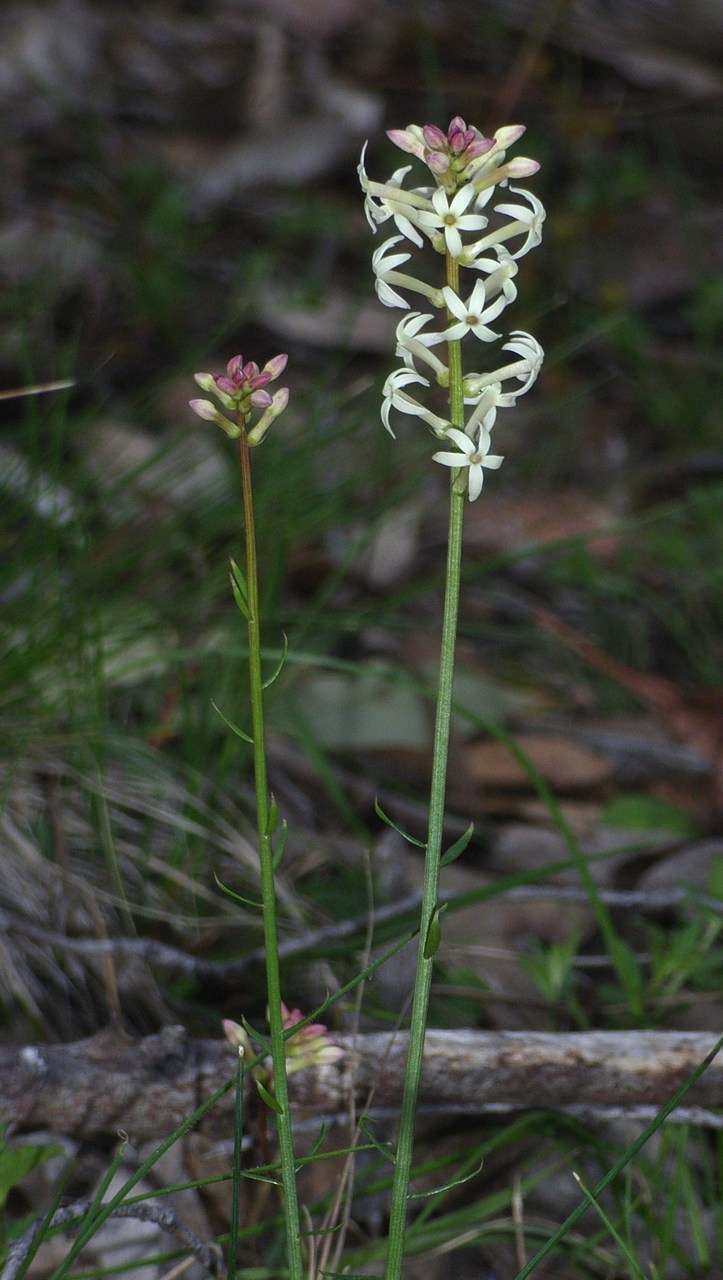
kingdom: Plantae
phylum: Tracheophyta
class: Magnoliopsida
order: Celastrales
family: Celastraceae
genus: Stackhousia
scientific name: Stackhousia monogyna
